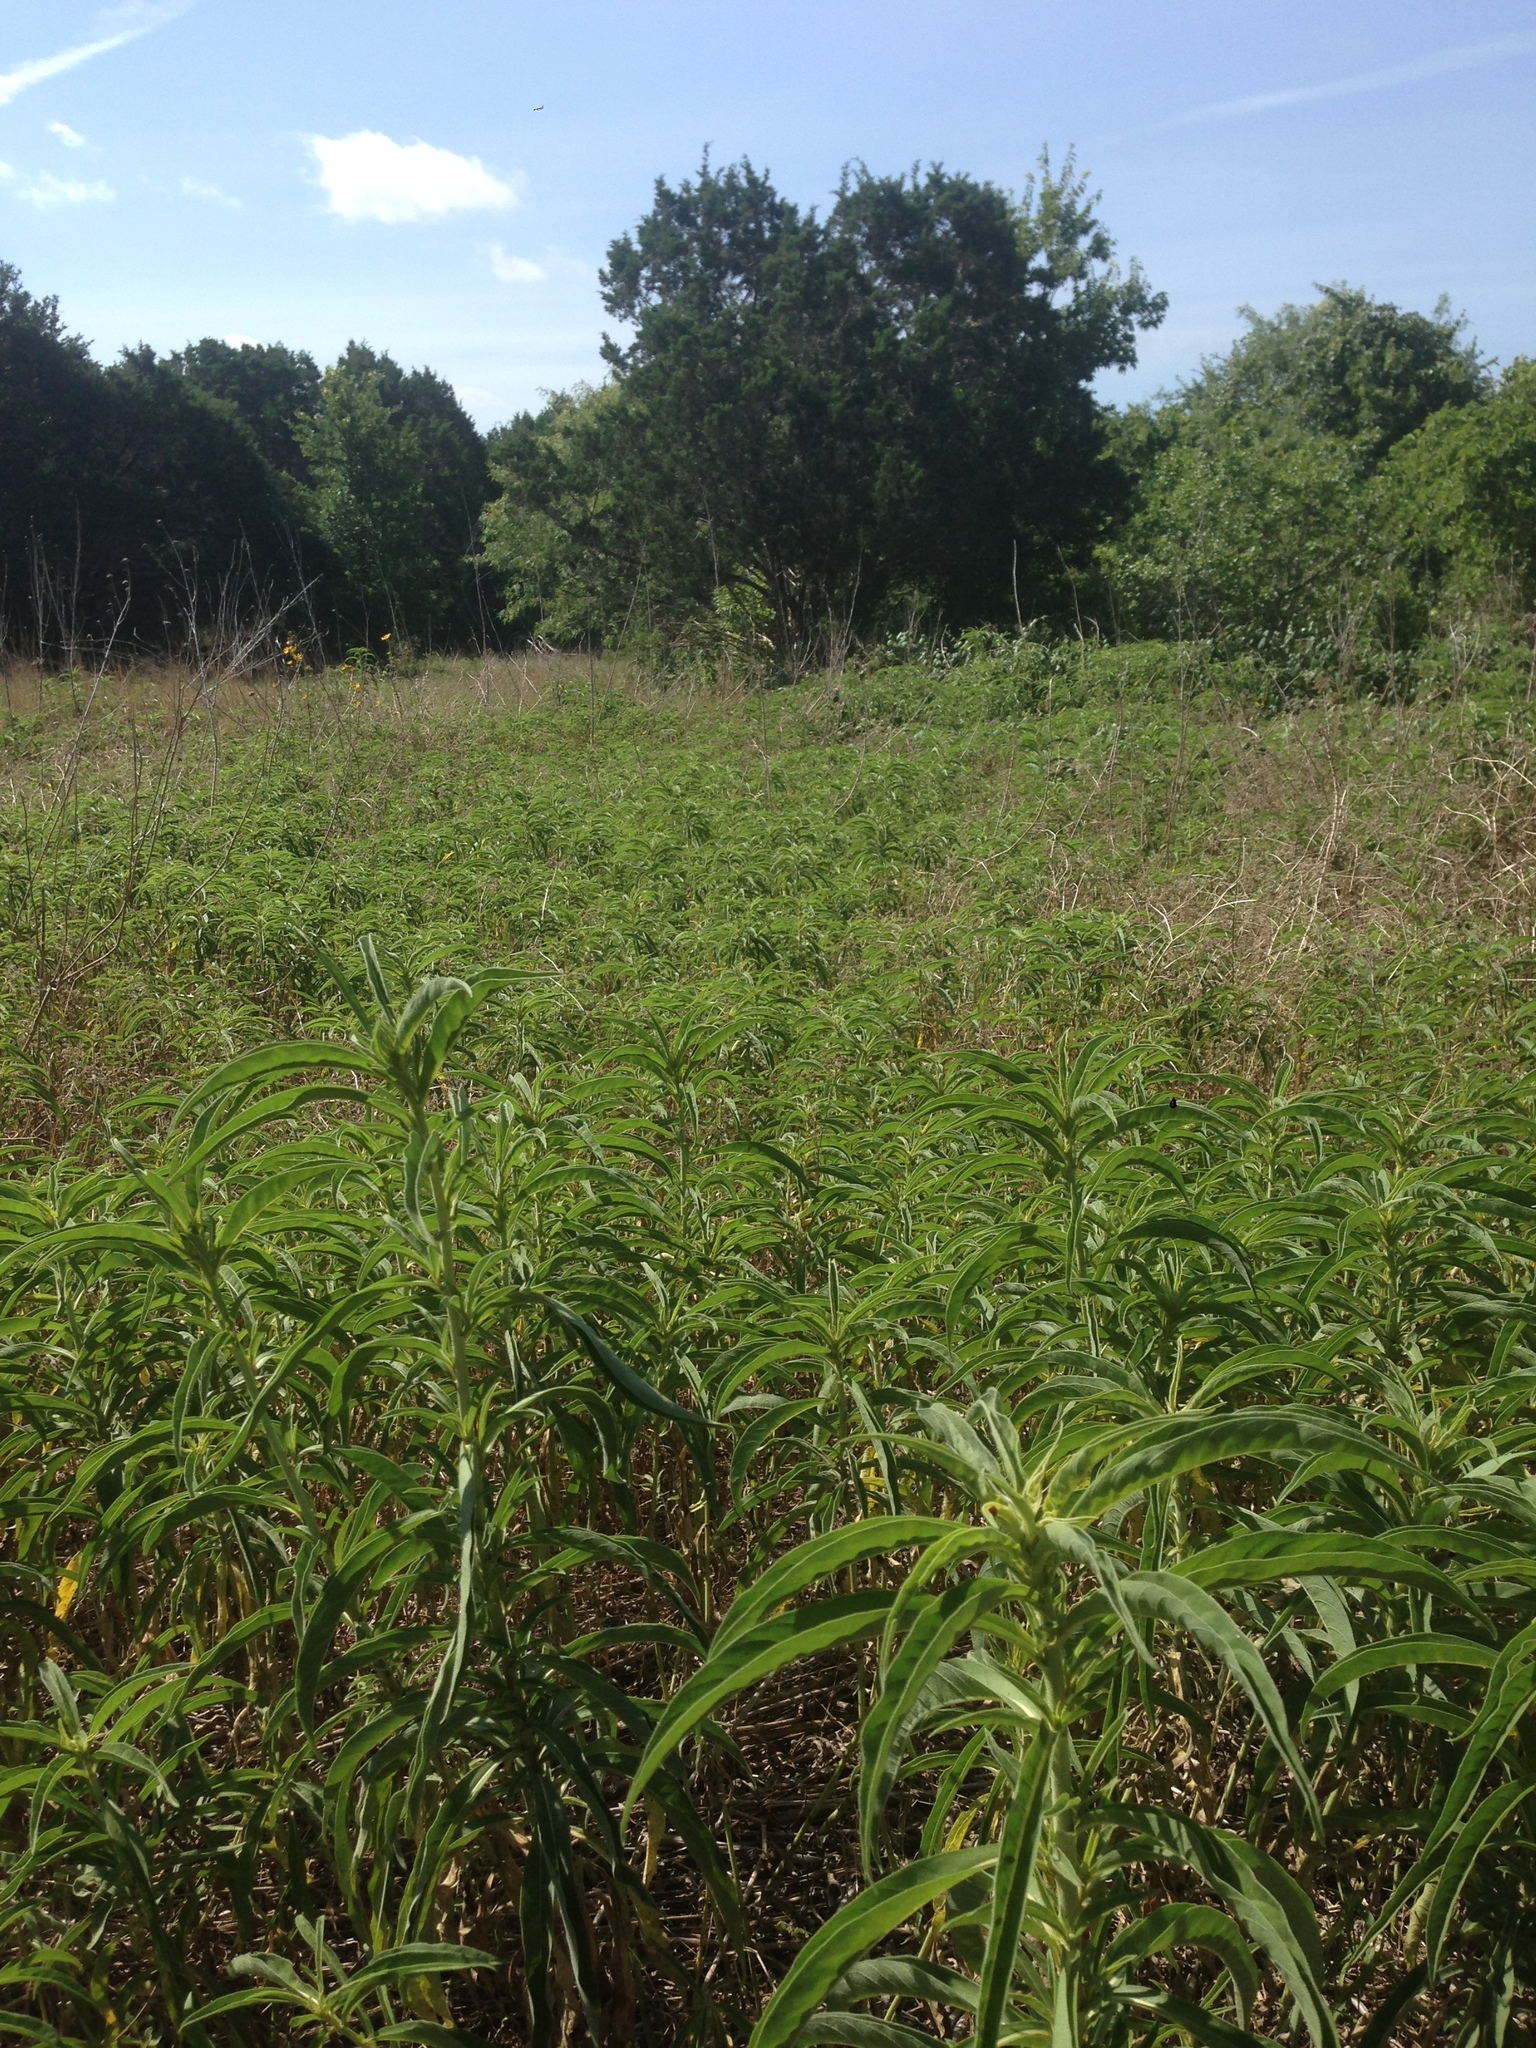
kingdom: Plantae
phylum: Tracheophyta
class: Magnoliopsida
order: Asterales
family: Asteraceae
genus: Helianthus
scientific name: Helianthus maximiliani
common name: Maximilian's sunflower
